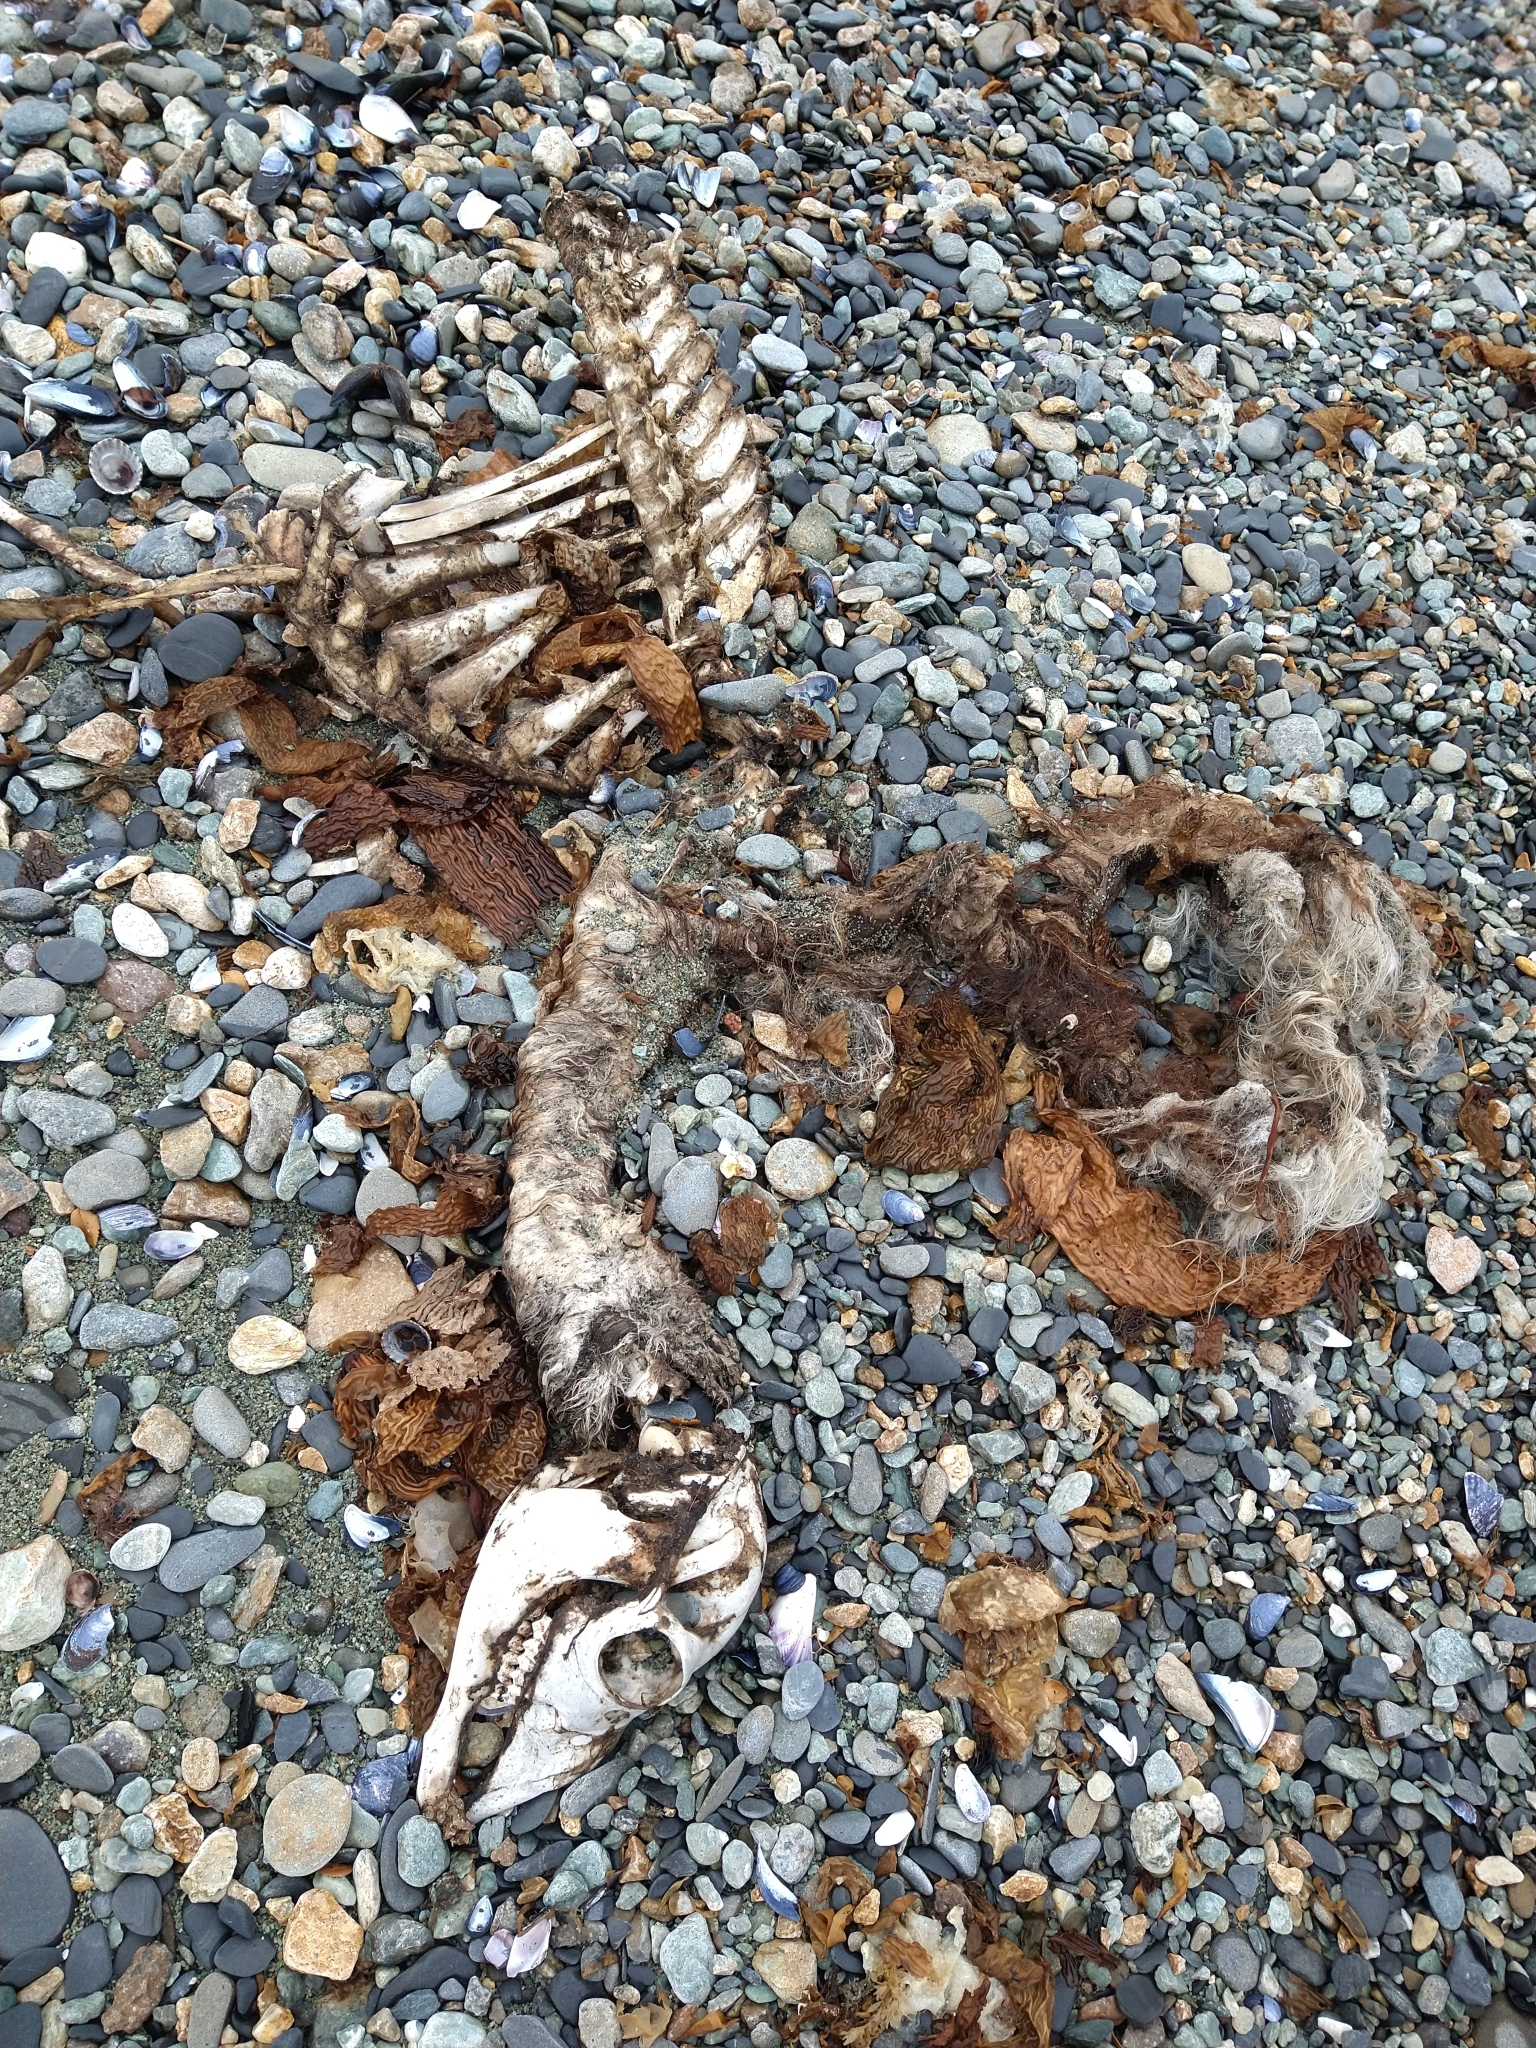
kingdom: Animalia
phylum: Chordata
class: Mammalia
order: Artiodactyla
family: Camelidae
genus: Lama
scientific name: Lama glama
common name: Llama
